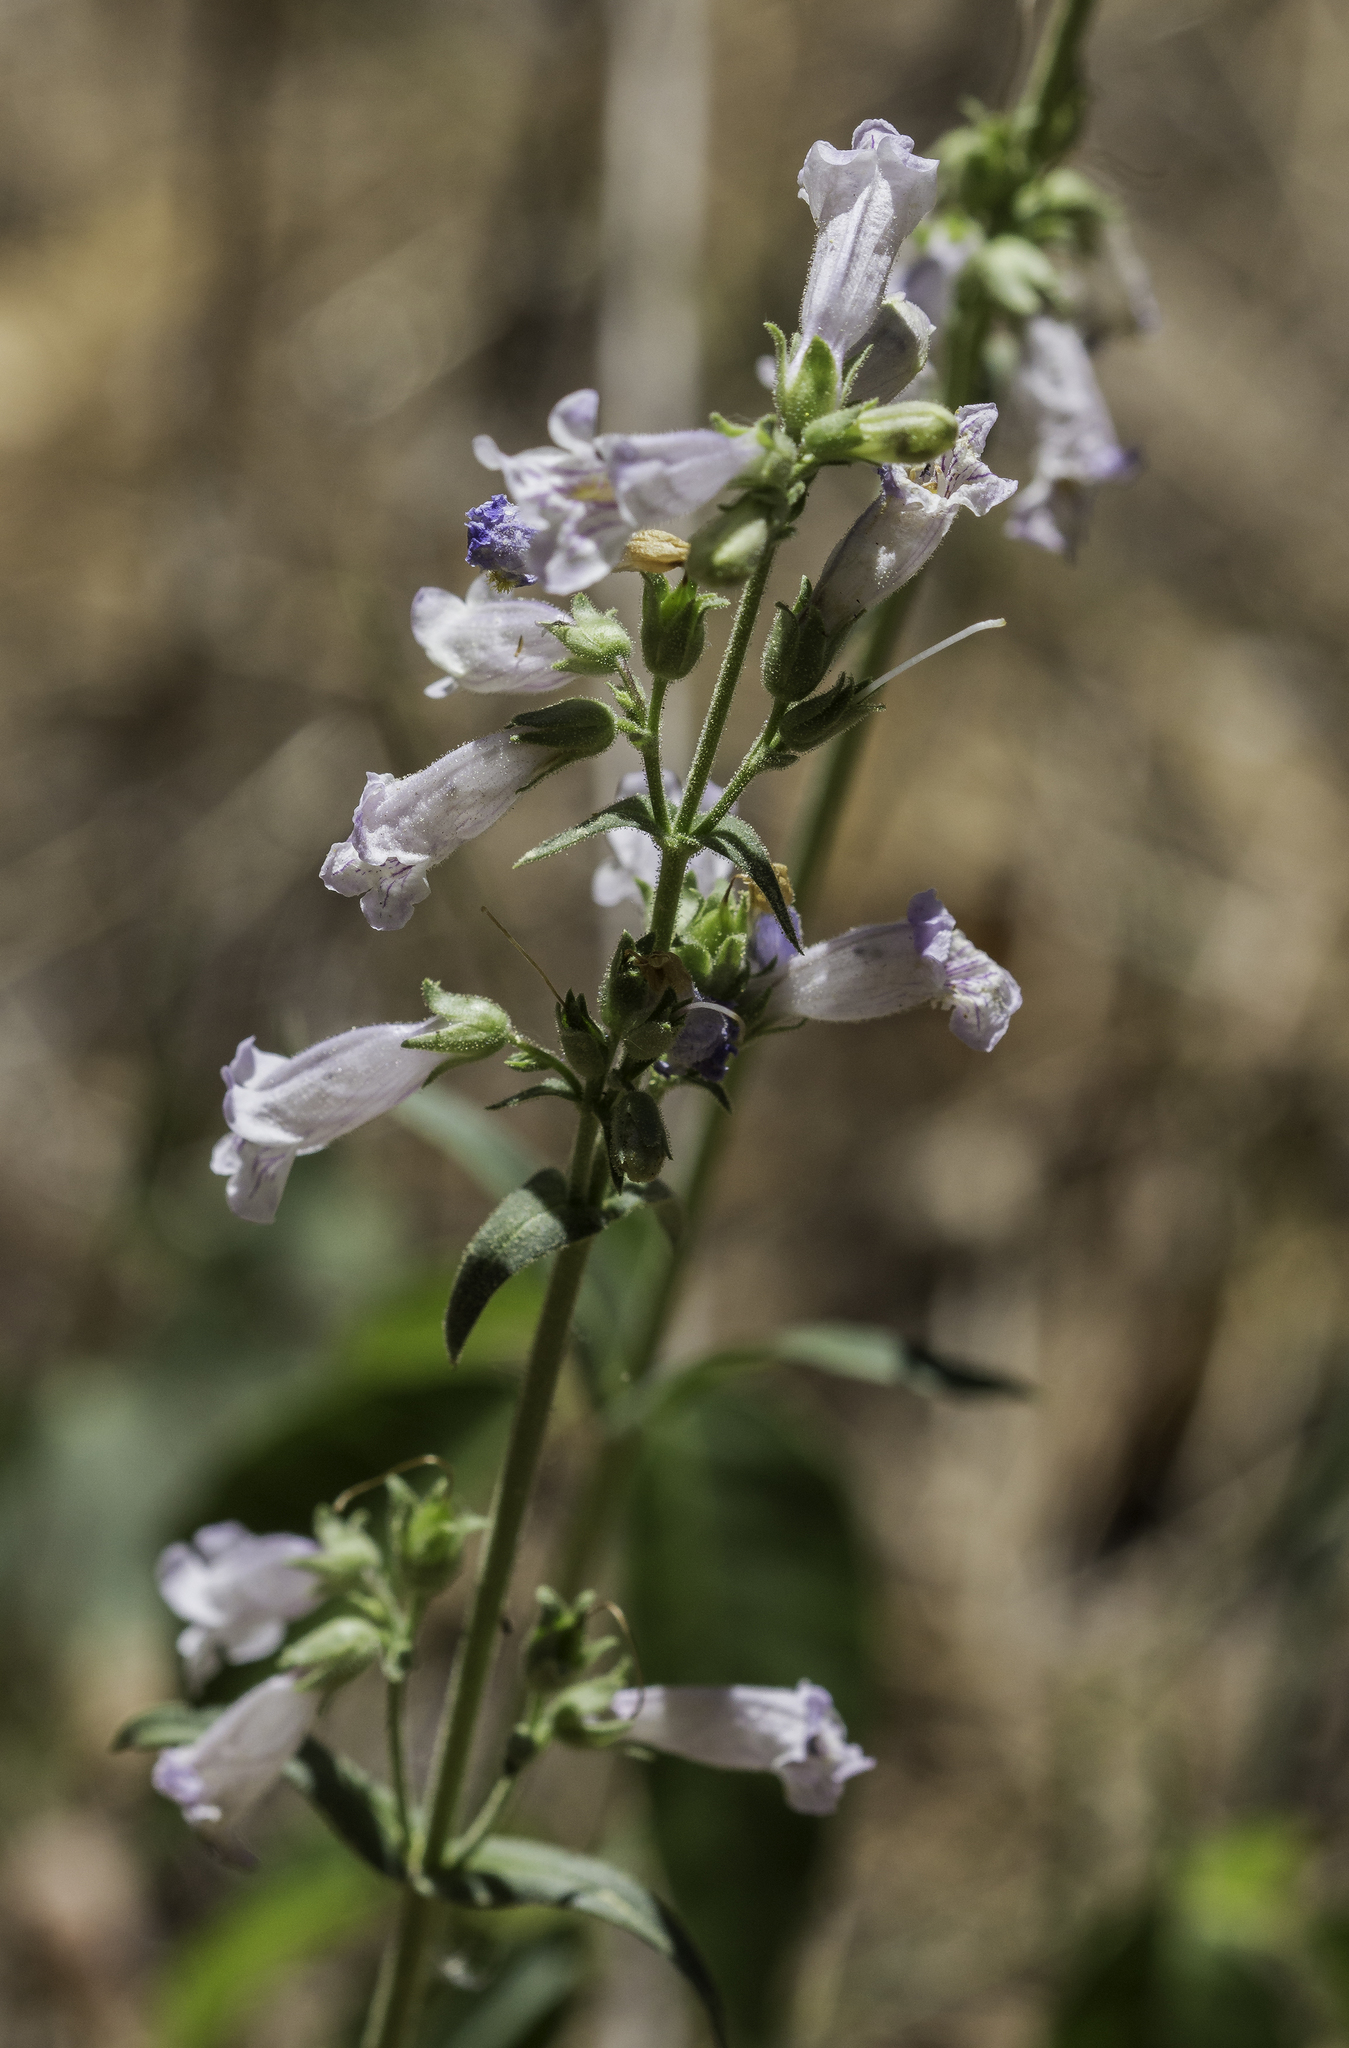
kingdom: Plantae
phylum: Tracheophyta
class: Magnoliopsida
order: Lamiales
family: Plantaginaceae
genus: Penstemon
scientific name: Penstemon oliganthus
